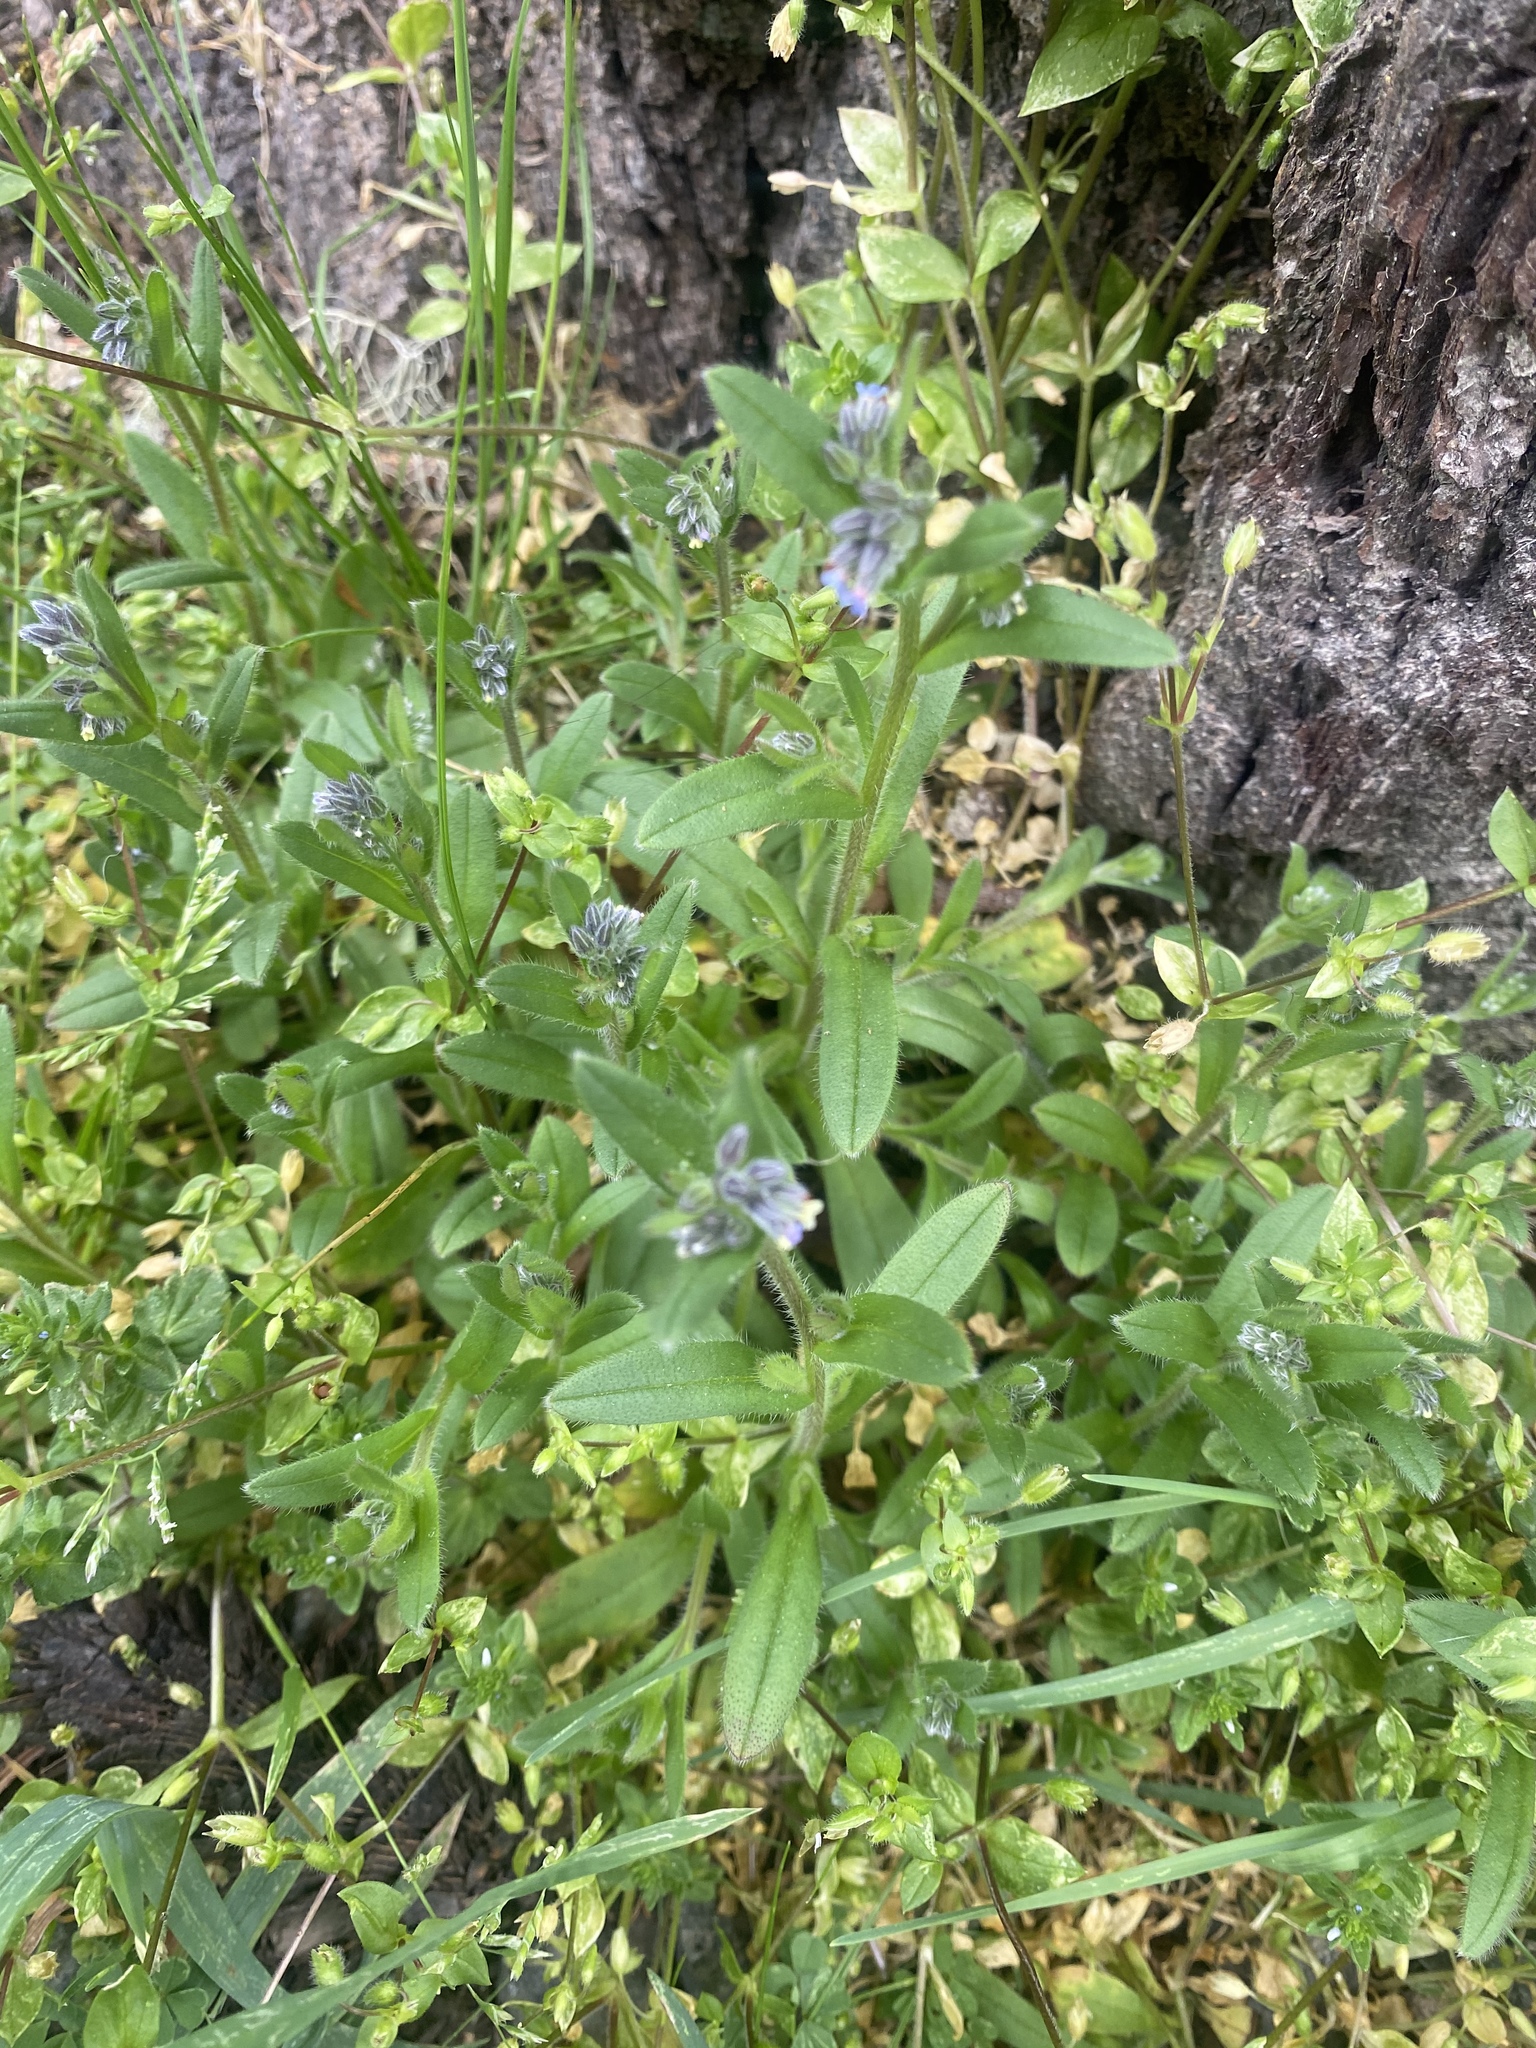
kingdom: Plantae
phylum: Tracheophyta
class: Magnoliopsida
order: Boraginales
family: Boraginaceae
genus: Myosotis
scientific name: Myosotis discolor
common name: Changing forget-me-not
